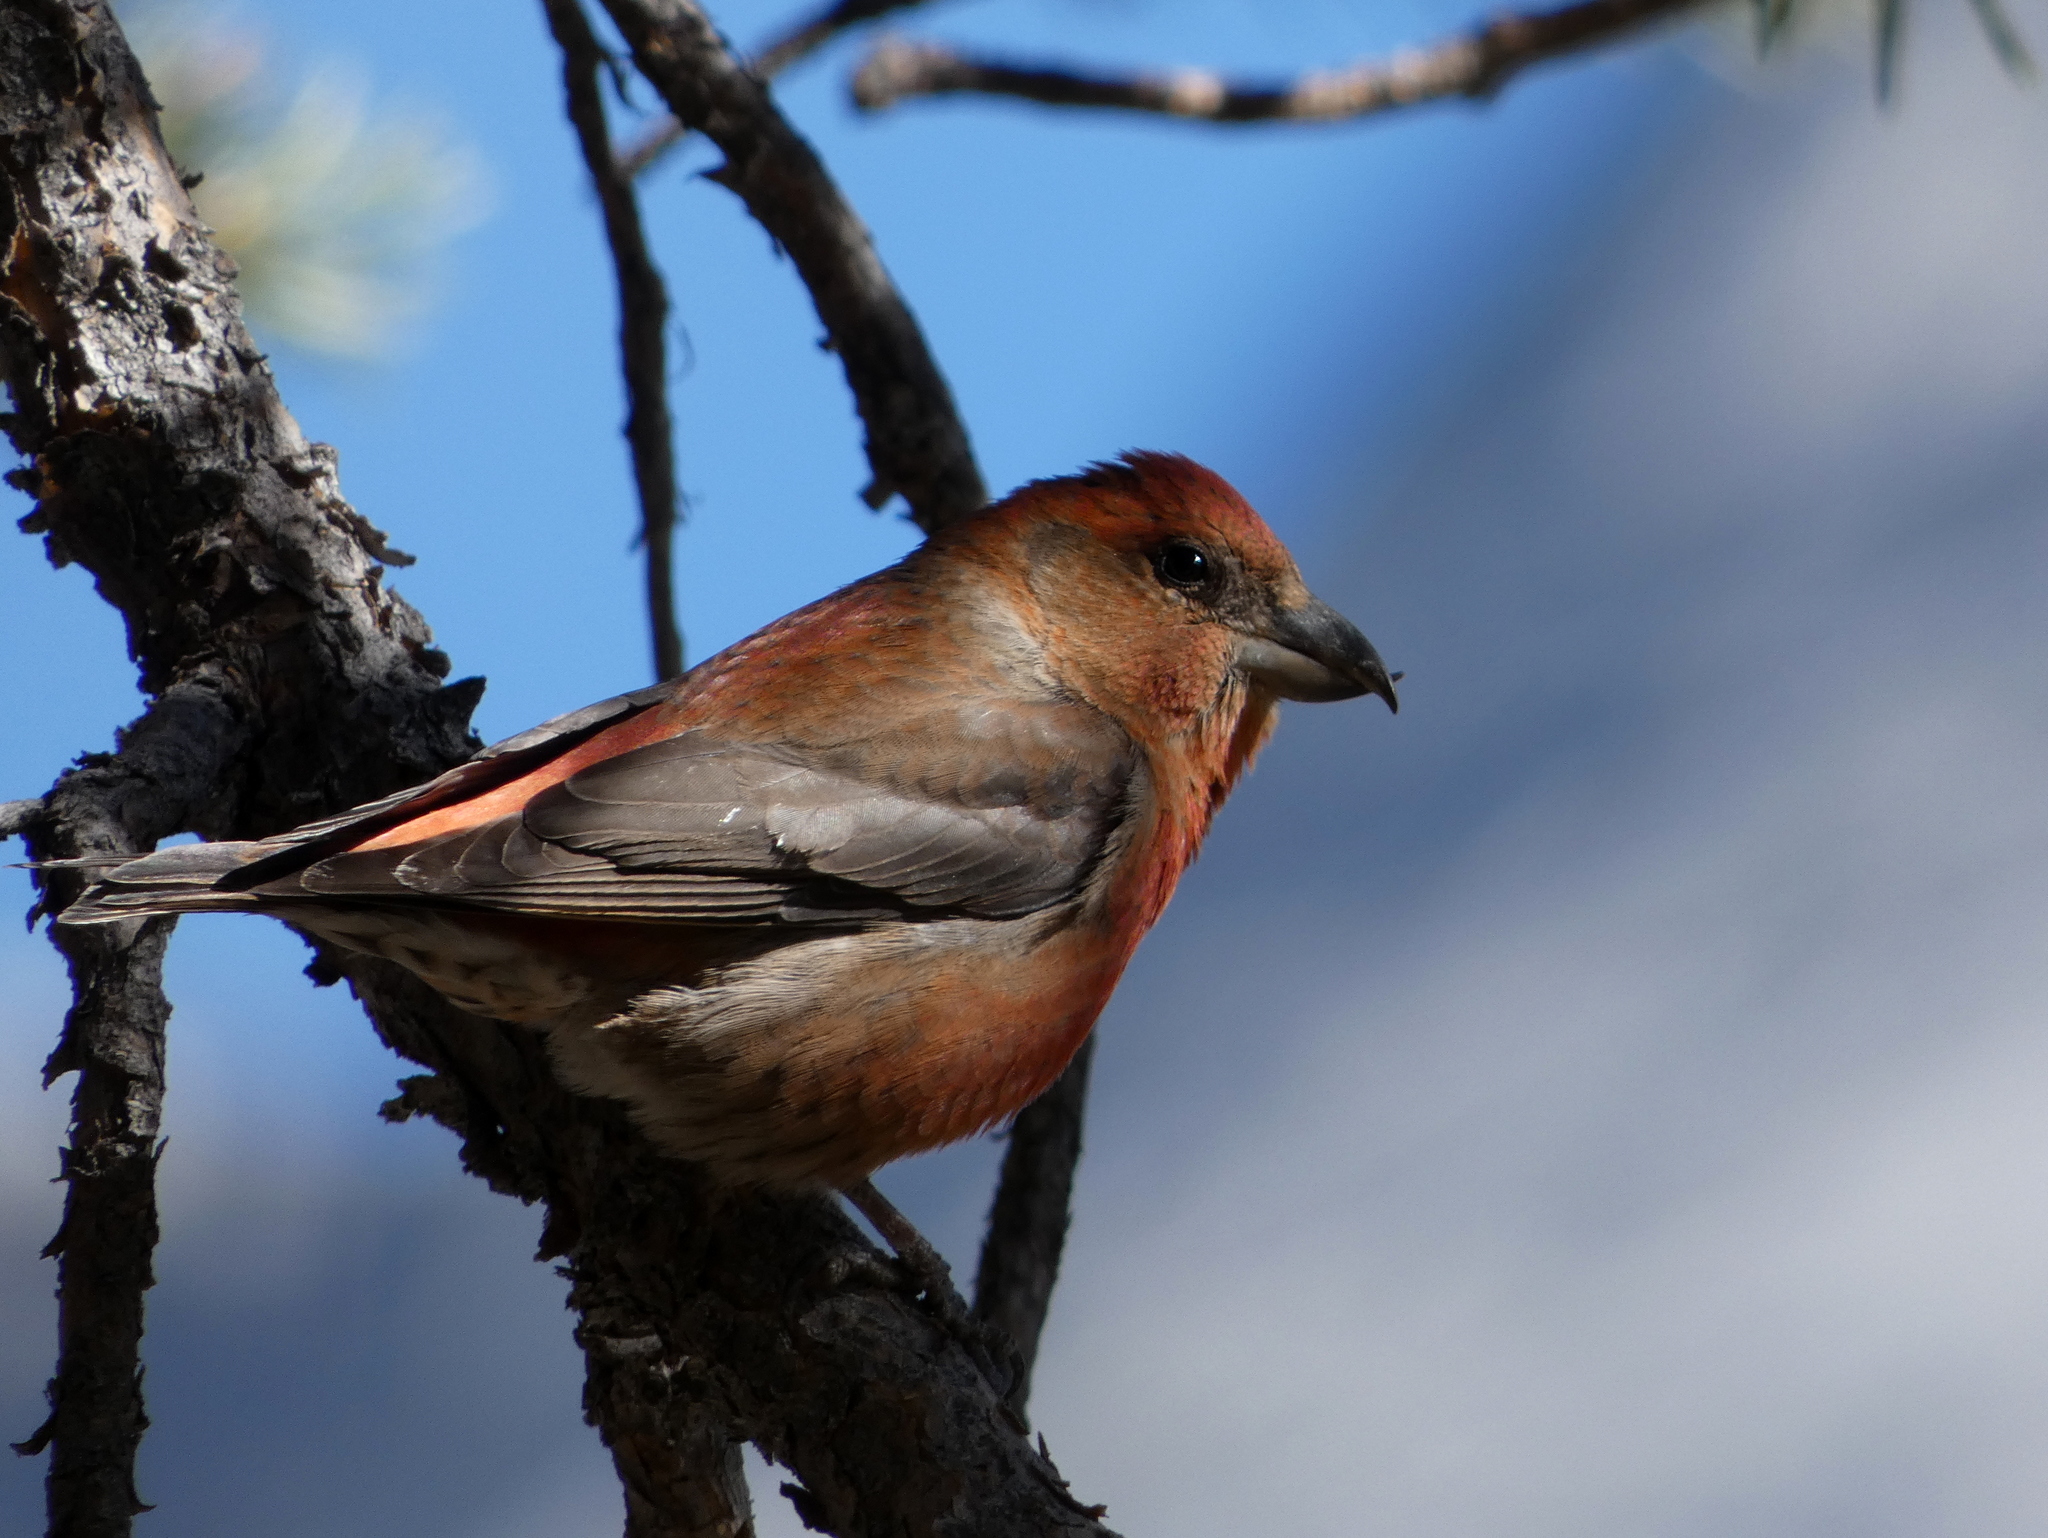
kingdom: Animalia
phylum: Chordata
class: Aves
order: Passeriformes
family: Fringillidae
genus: Loxia
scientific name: Loxia curvirostra
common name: Red crossbill
